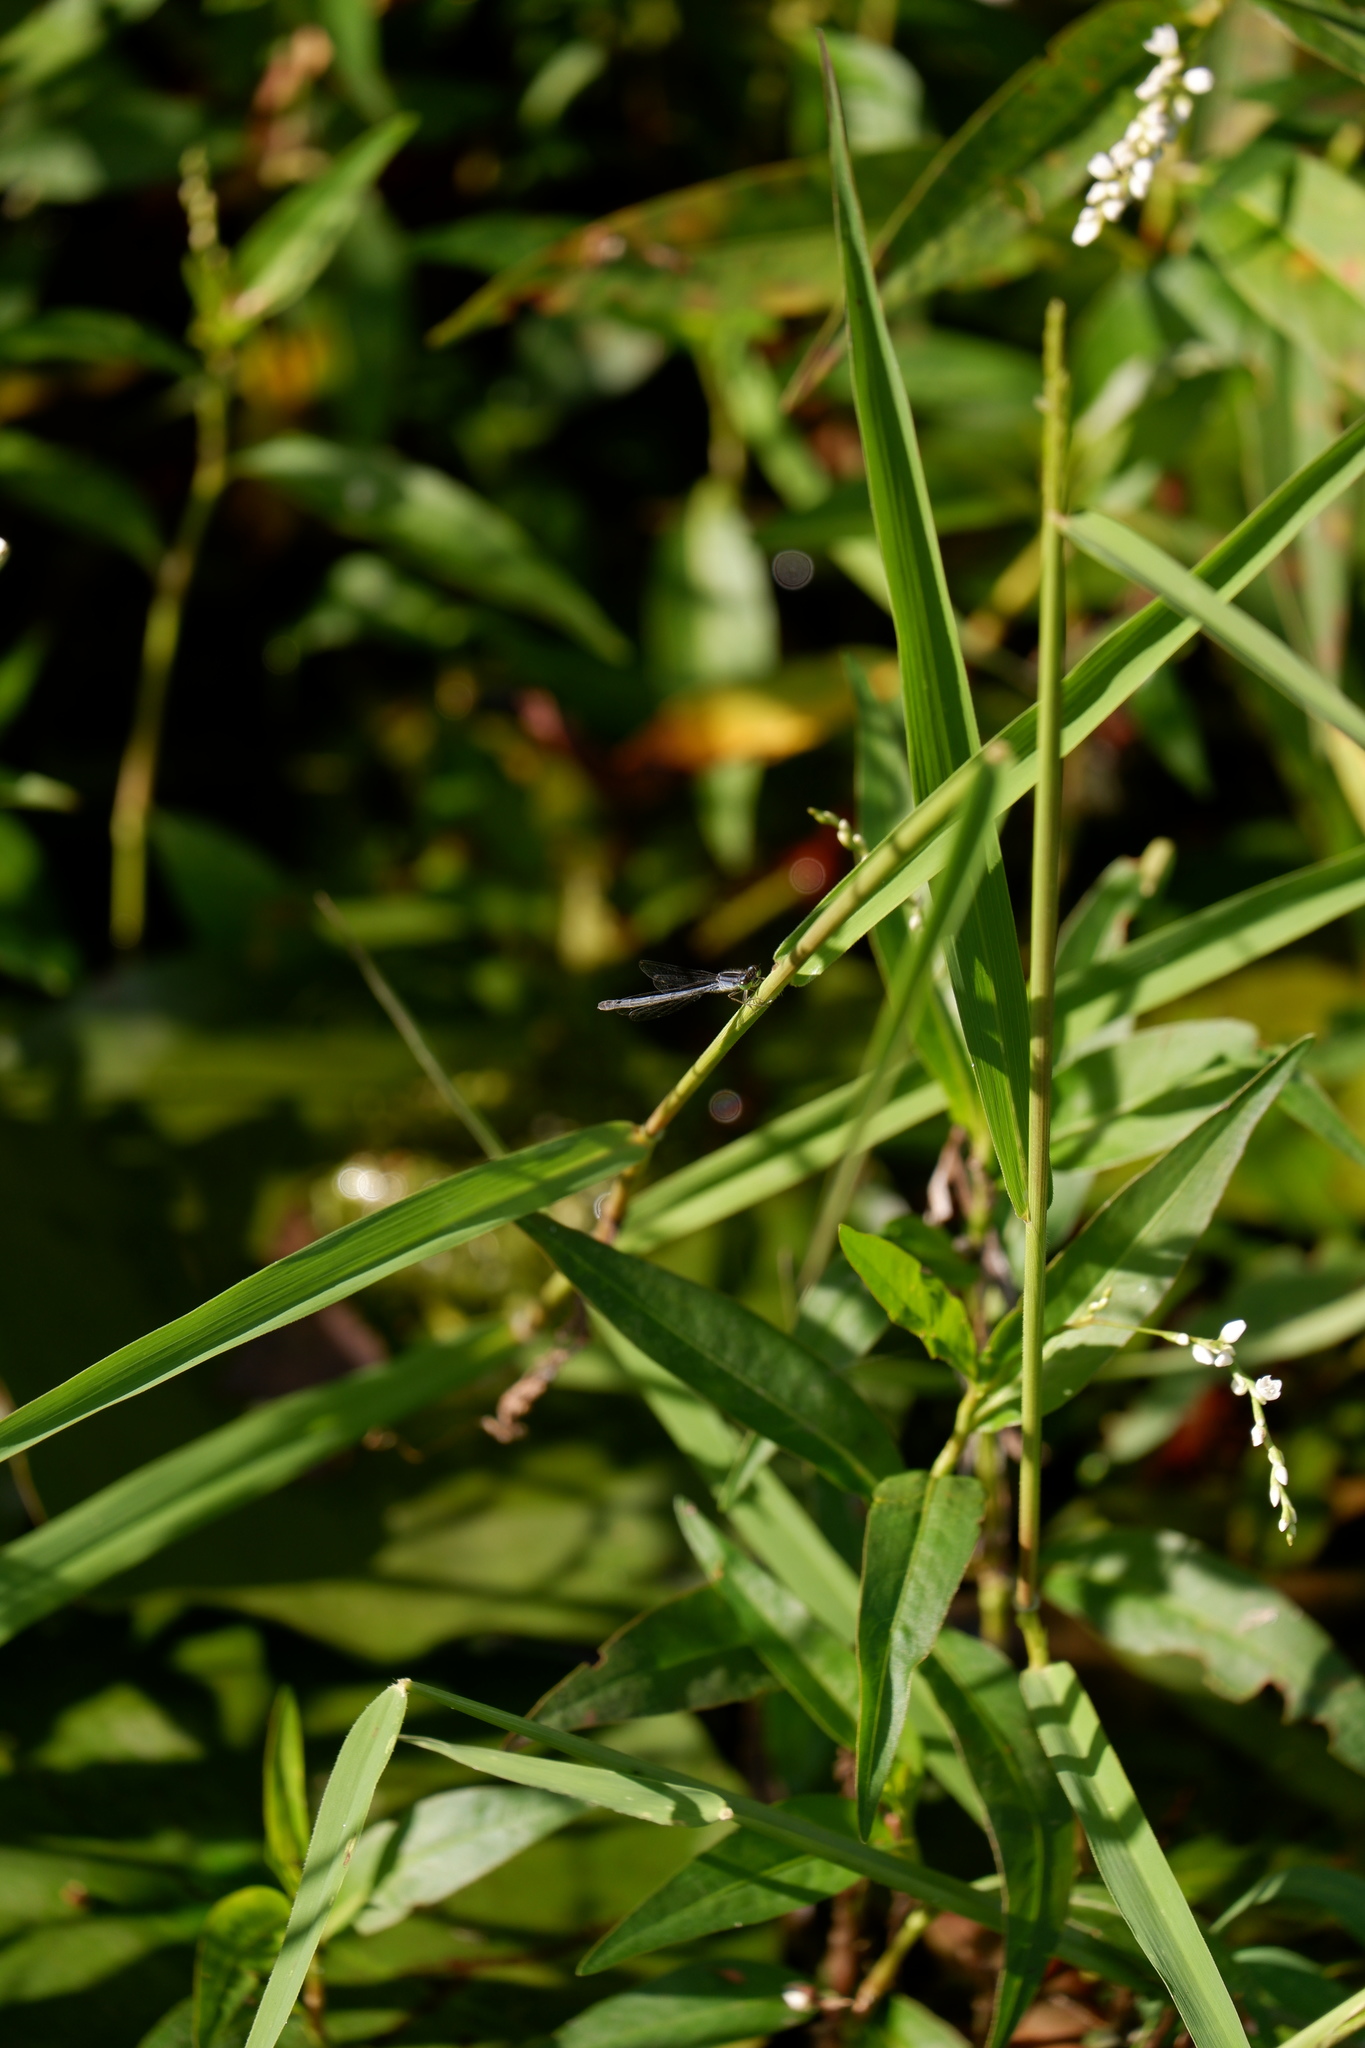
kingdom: Animalia
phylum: Arthropoda
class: Insecta
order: Odonata
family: Coenagrionidae
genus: Ischnura
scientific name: Ischnura verticalis
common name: Eastern forktail
